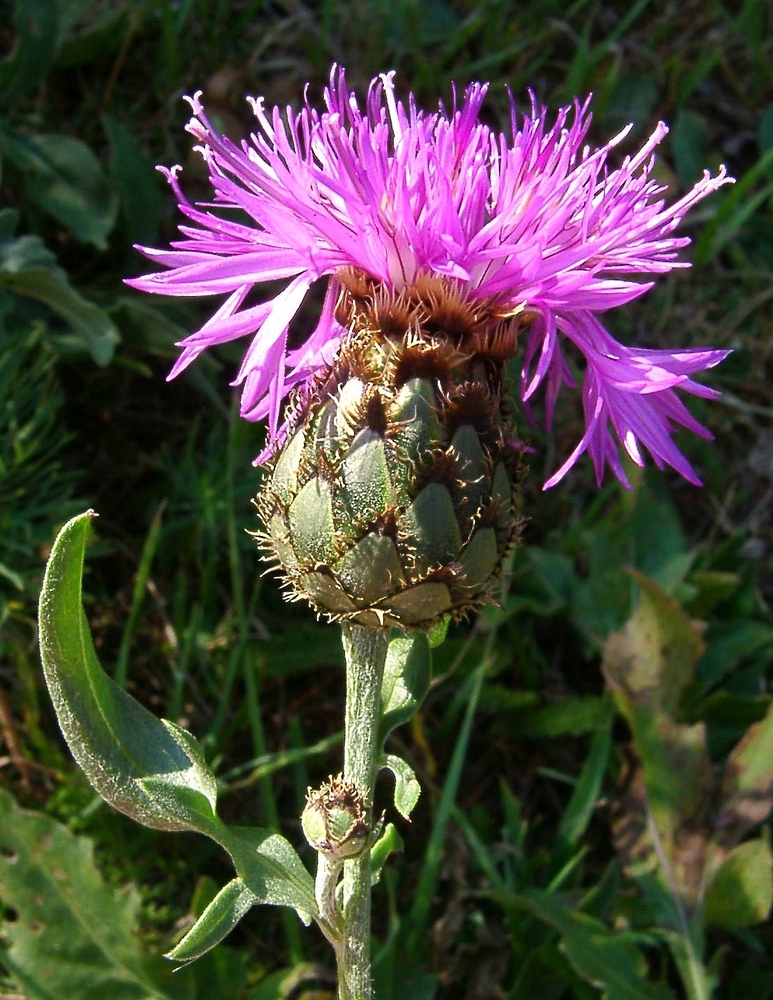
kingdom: Plantae
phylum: Tracheophyta
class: Magnoliopsida
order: Asterales
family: Asteraceae
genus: Centaurea
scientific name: Centaurea scabiosa
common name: Greater knapweed
